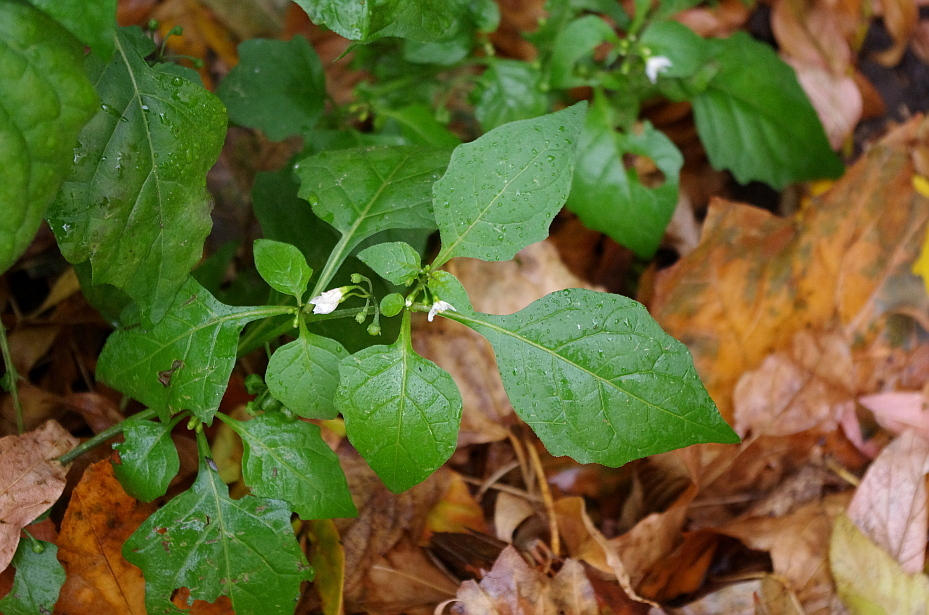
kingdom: Plantae
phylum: Tracheophyta
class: Magnoliopsida
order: Solanales
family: Solanaceae
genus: Solanum
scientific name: Solanum nigrum
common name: Black nightshade
